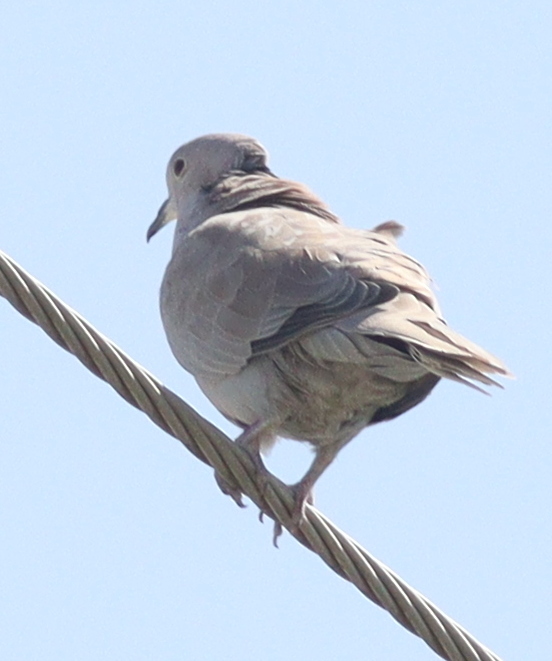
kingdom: Animalia
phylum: Chordata
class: Aves
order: Columbiformes
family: Columbidae
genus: Streptopelia
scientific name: Streptopelia decaocto
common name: Eurasian collared dove
